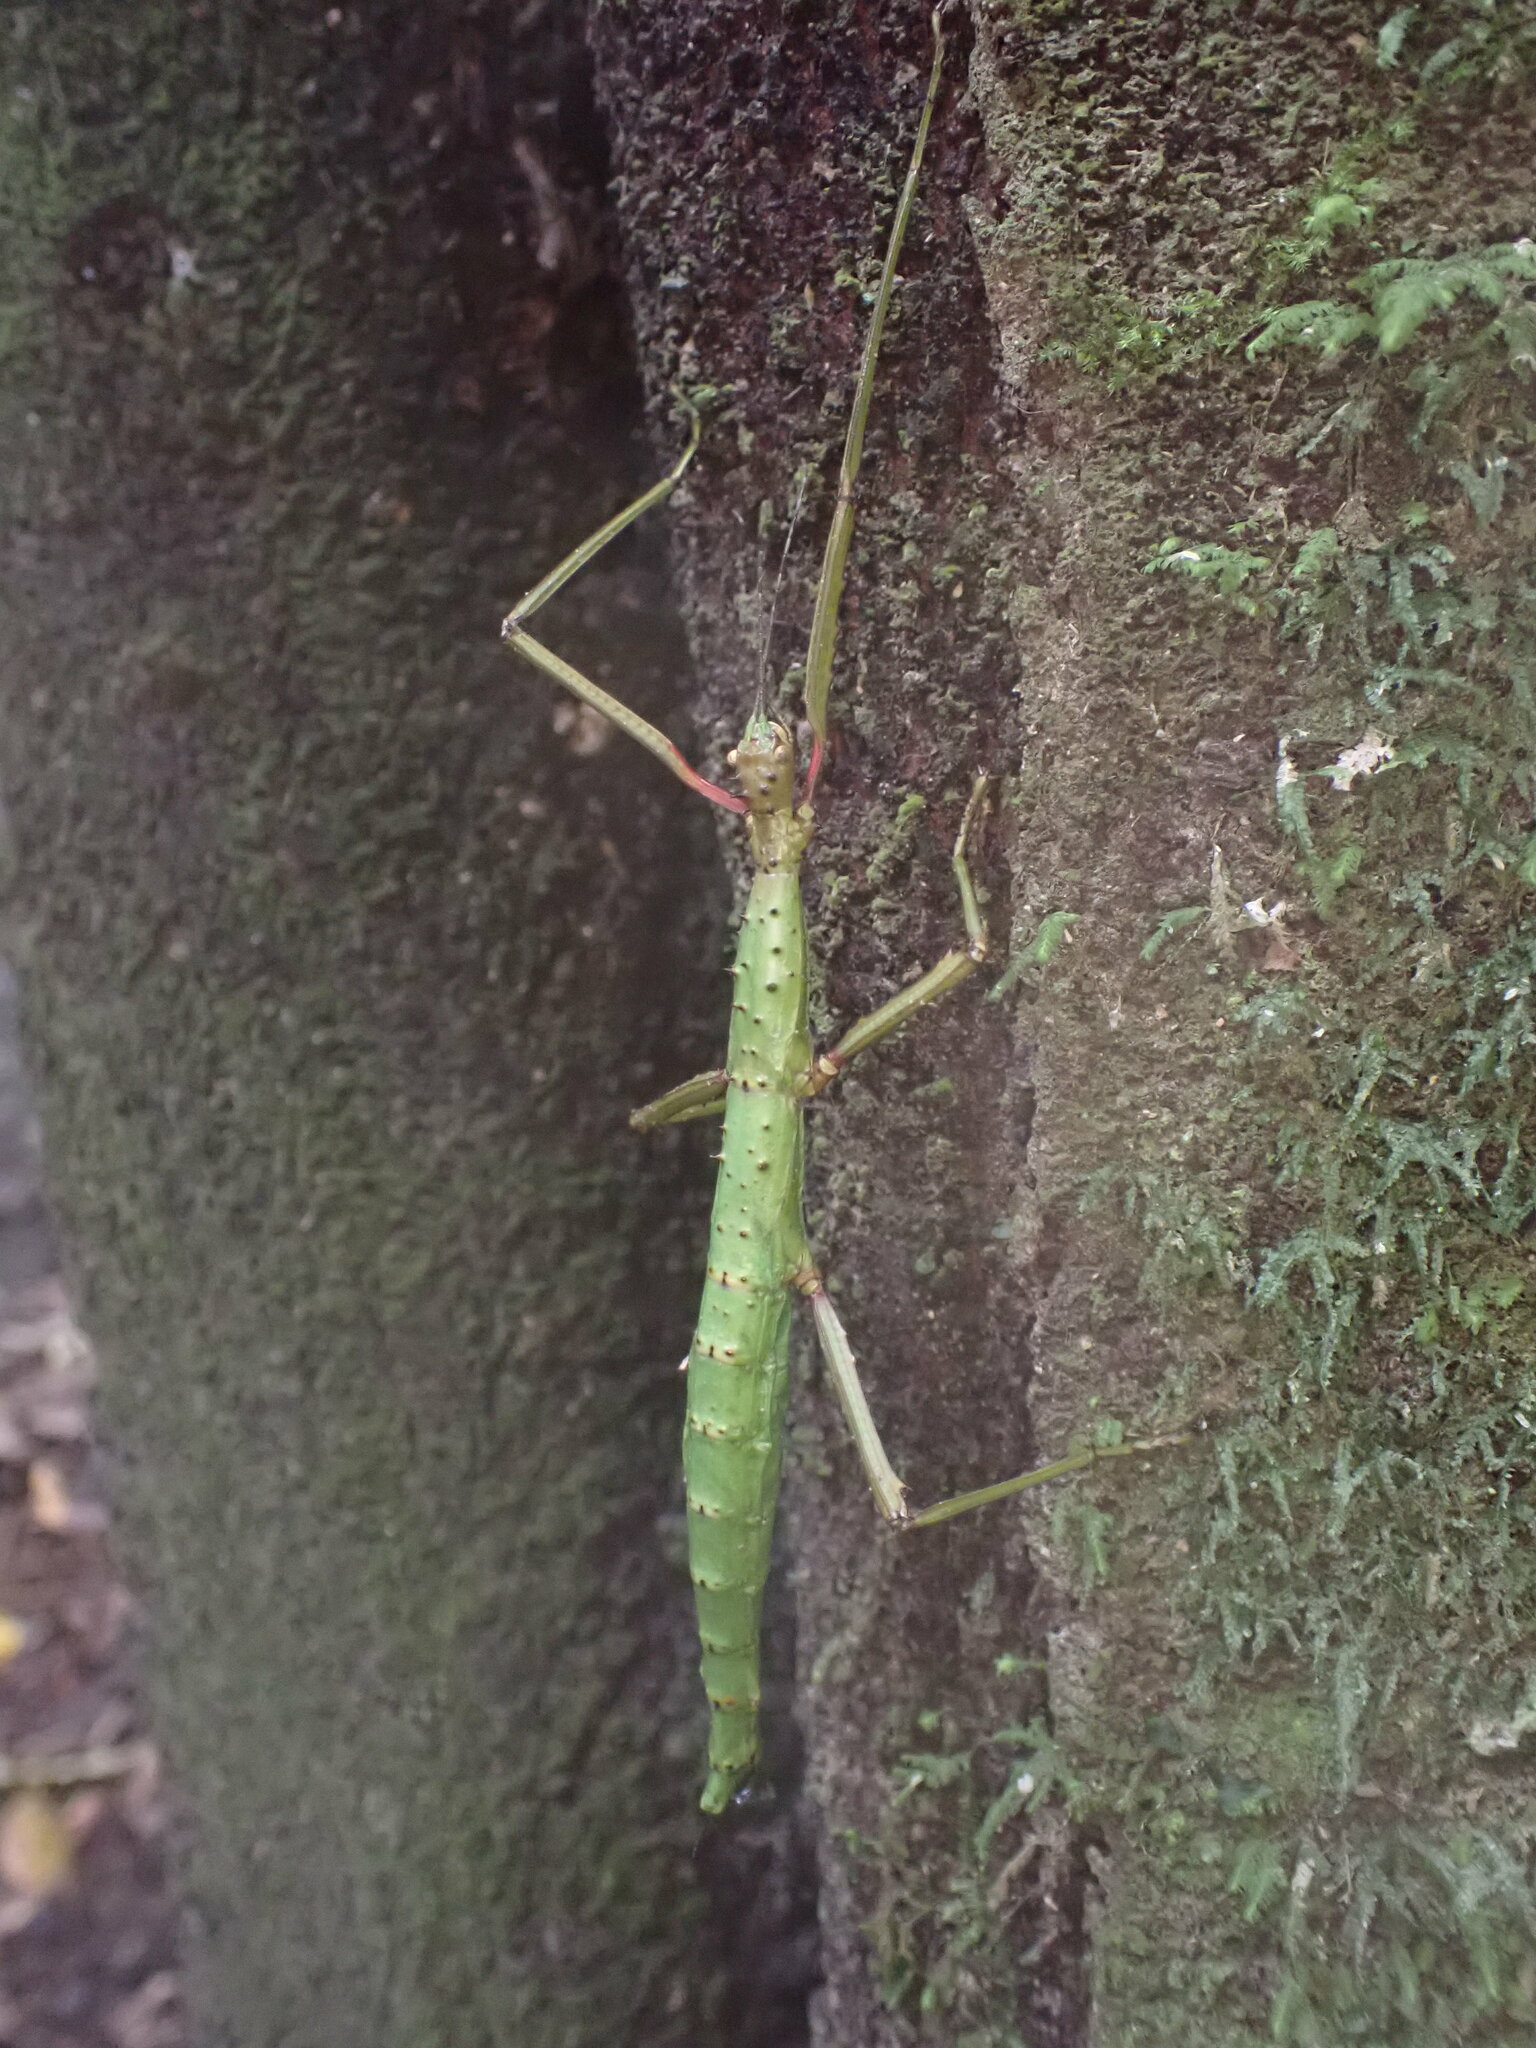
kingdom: Animalia
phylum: Arthropoda
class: Insecta
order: Phasmida
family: Phasmatidae
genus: Acanthoxyla
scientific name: Acanthoxyla prasina
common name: Black-spined stick insect
